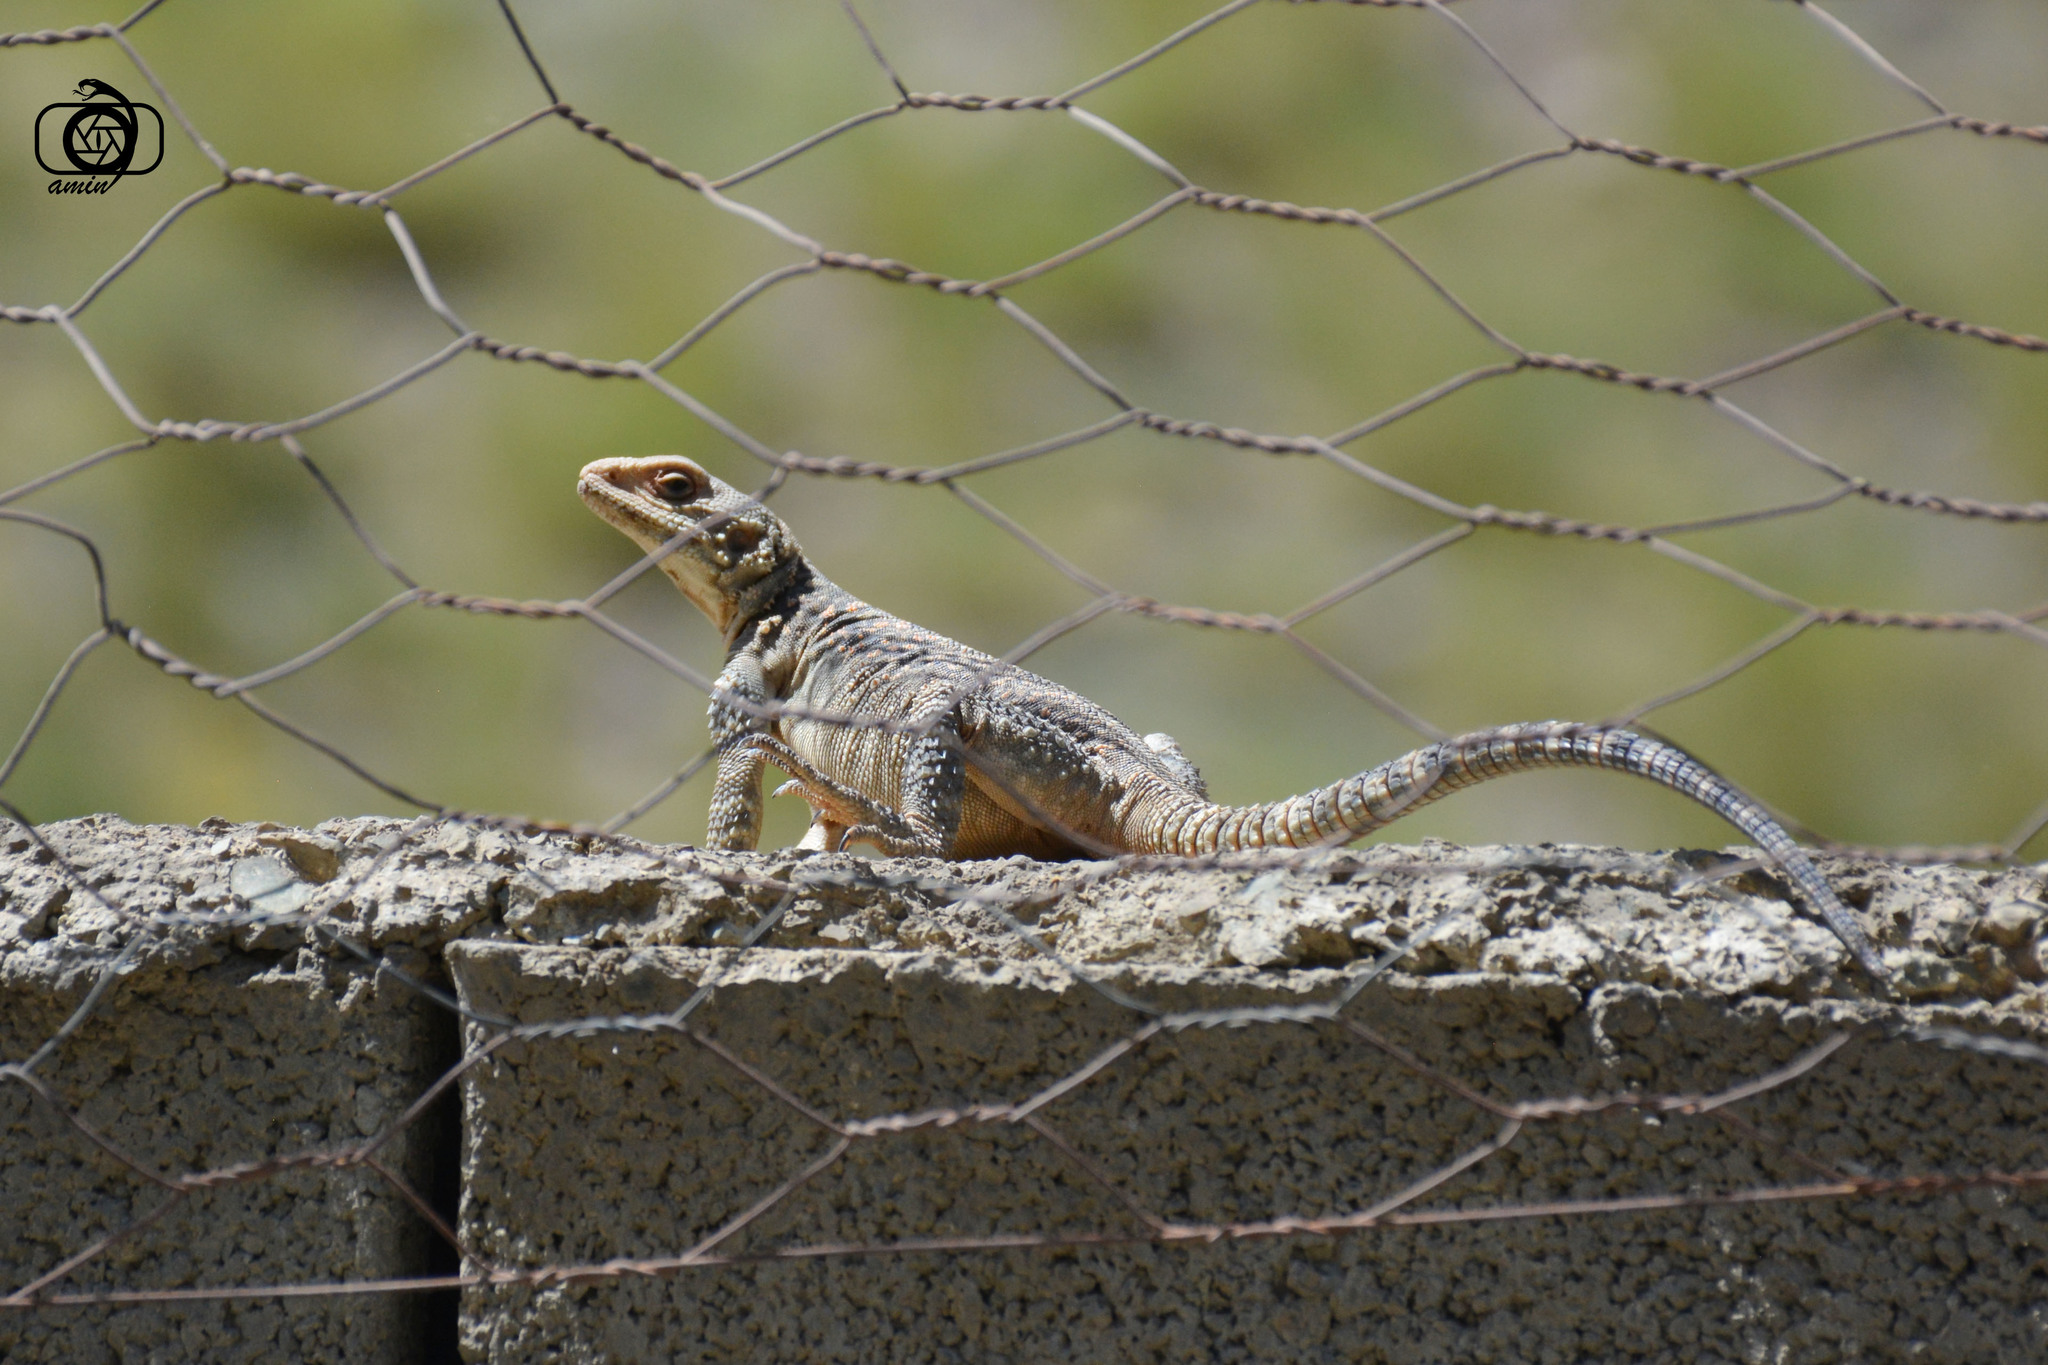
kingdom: Animalia
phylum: Chordata
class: Squamata
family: Agamidae
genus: Paralaudakia
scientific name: Paralaudakia caucasia
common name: Caucasian agama
